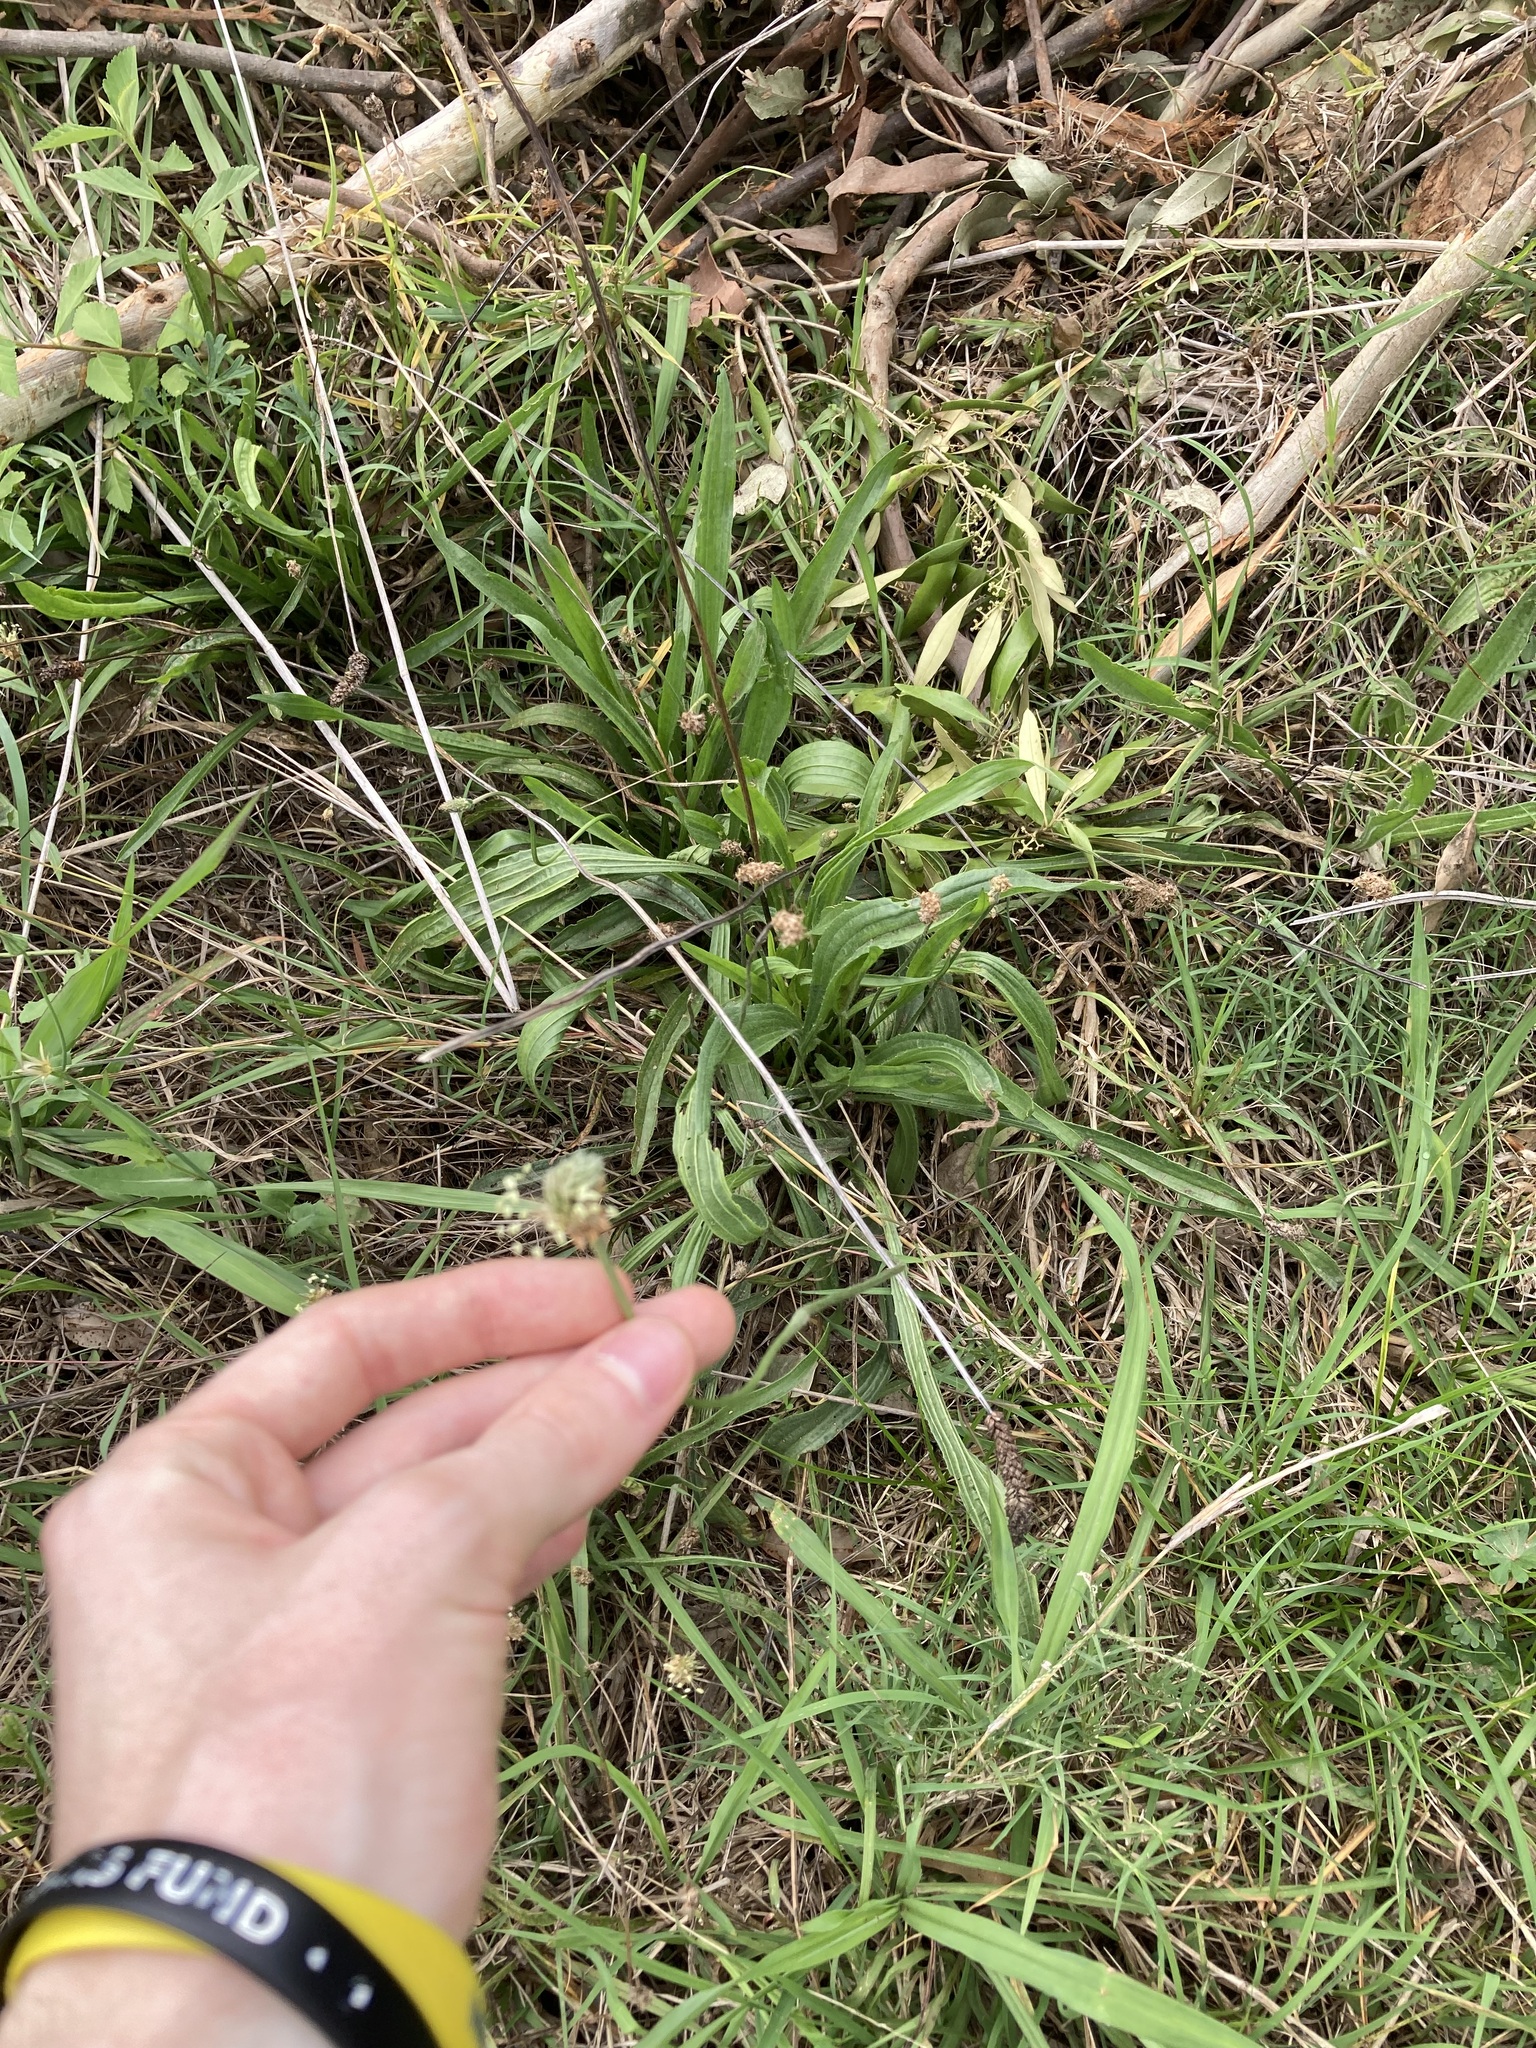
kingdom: Plantae
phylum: Tracheophyta
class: Magnoliopsida
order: Lamiales
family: Plantaginaceae
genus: Plantago
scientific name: Plantago lanceolata
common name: Ribwort plantain
